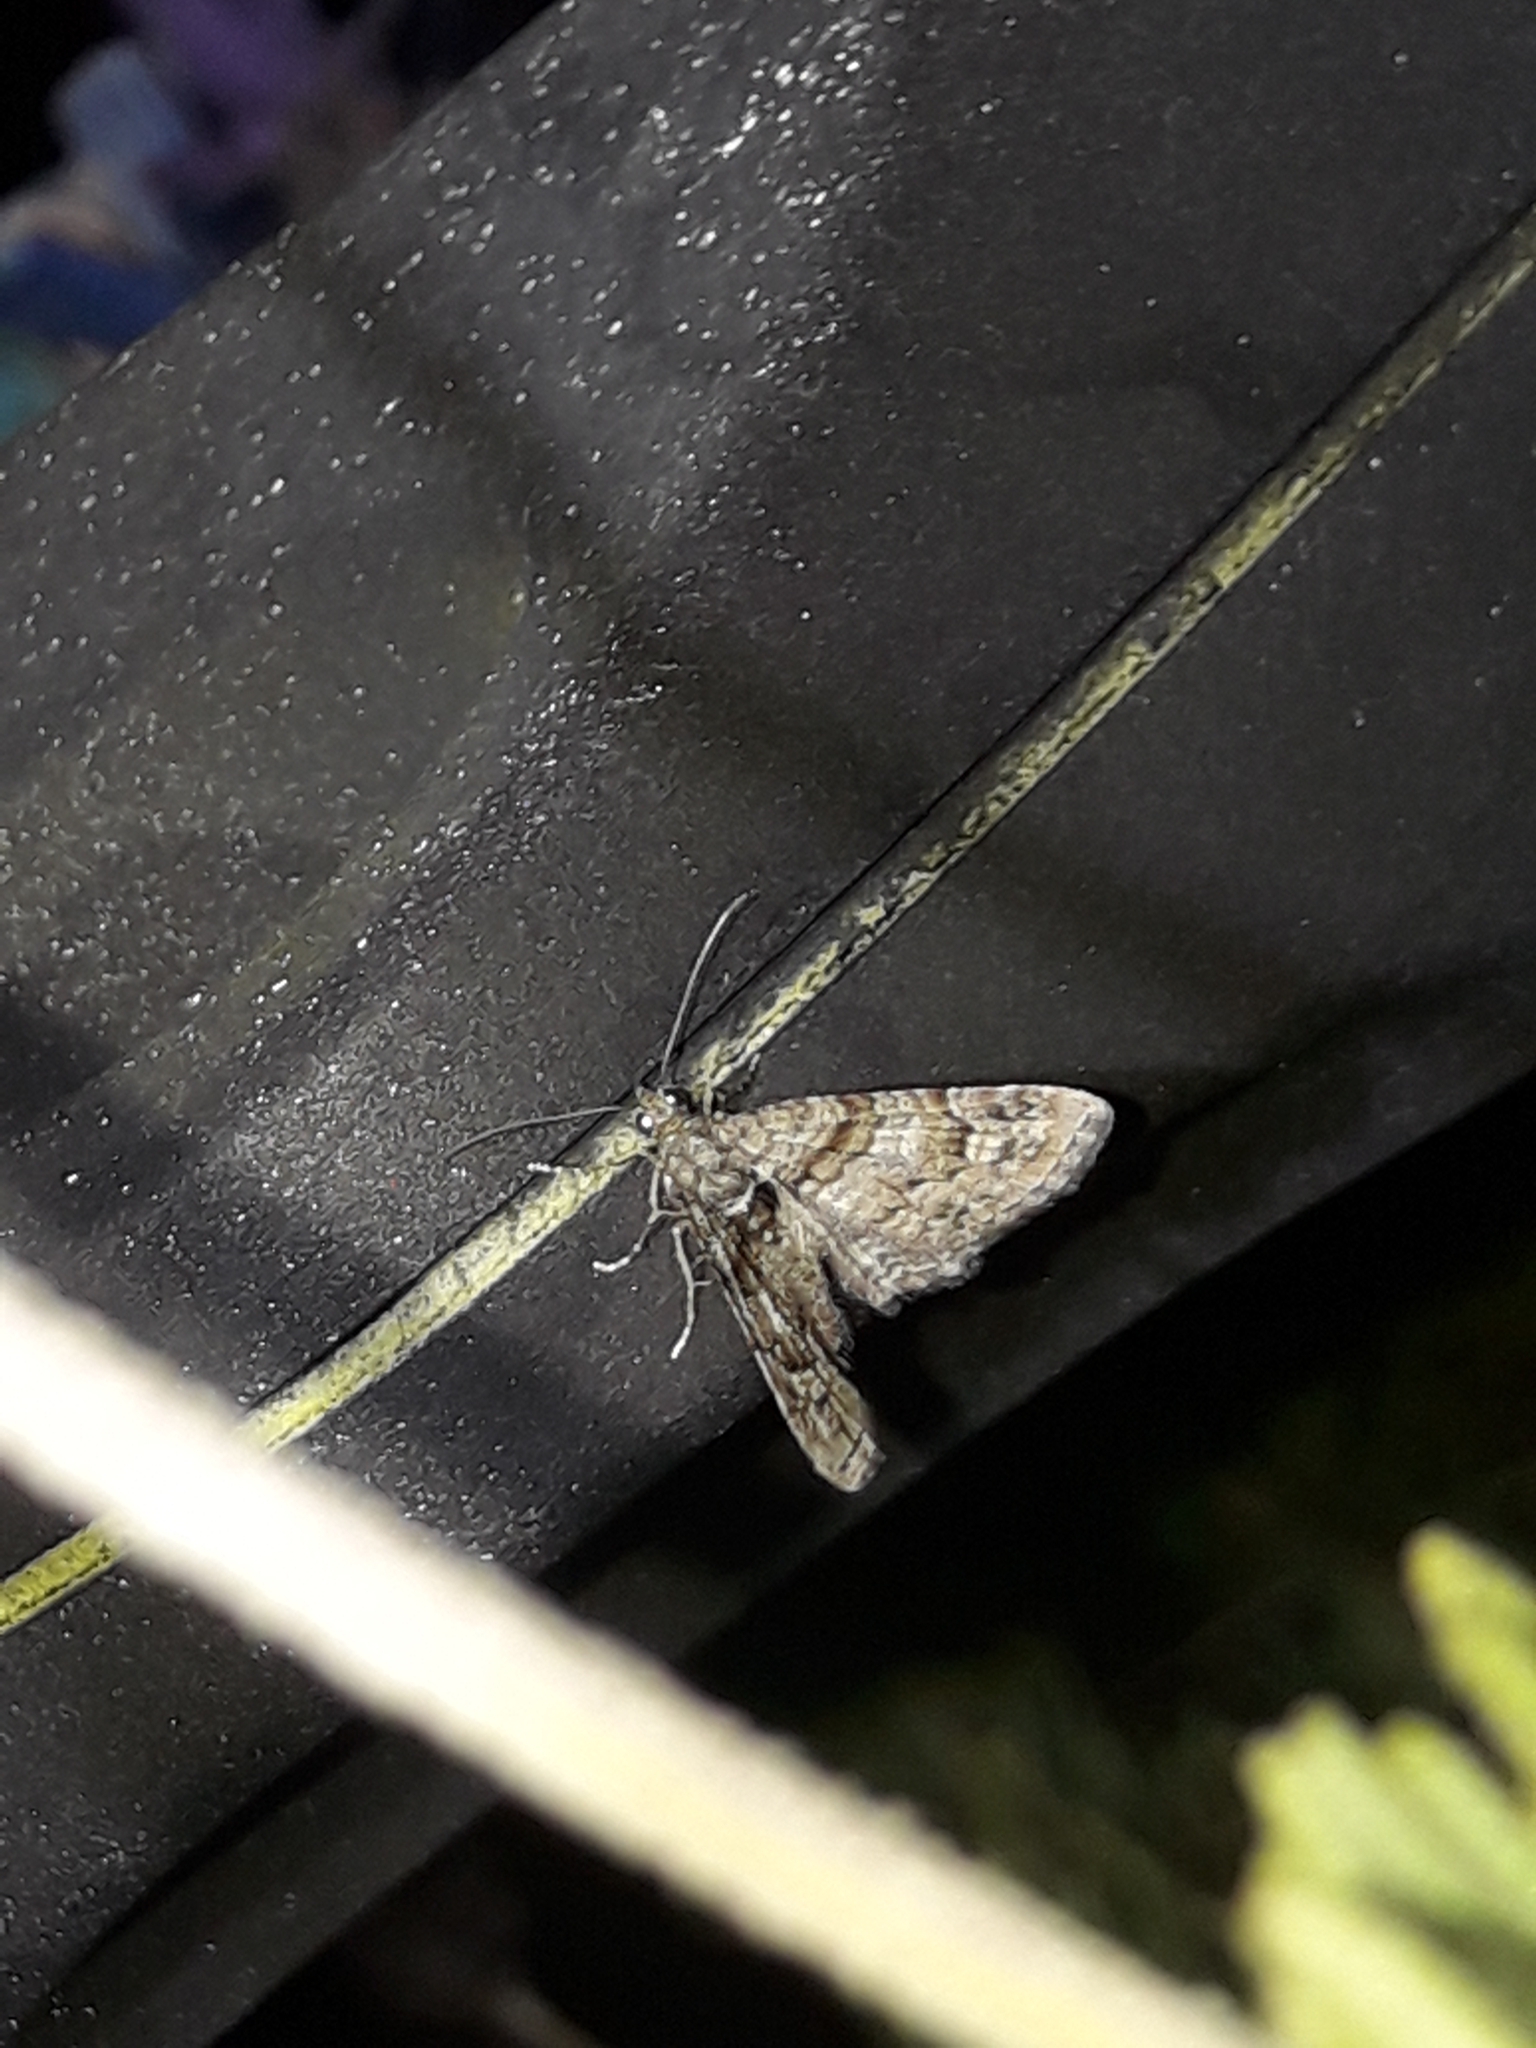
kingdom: Animalia
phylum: Arthropoda
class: Insecta
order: Lepidoptera
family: Geometridae
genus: Phrissogonus
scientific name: Phrissogonus laticostata
